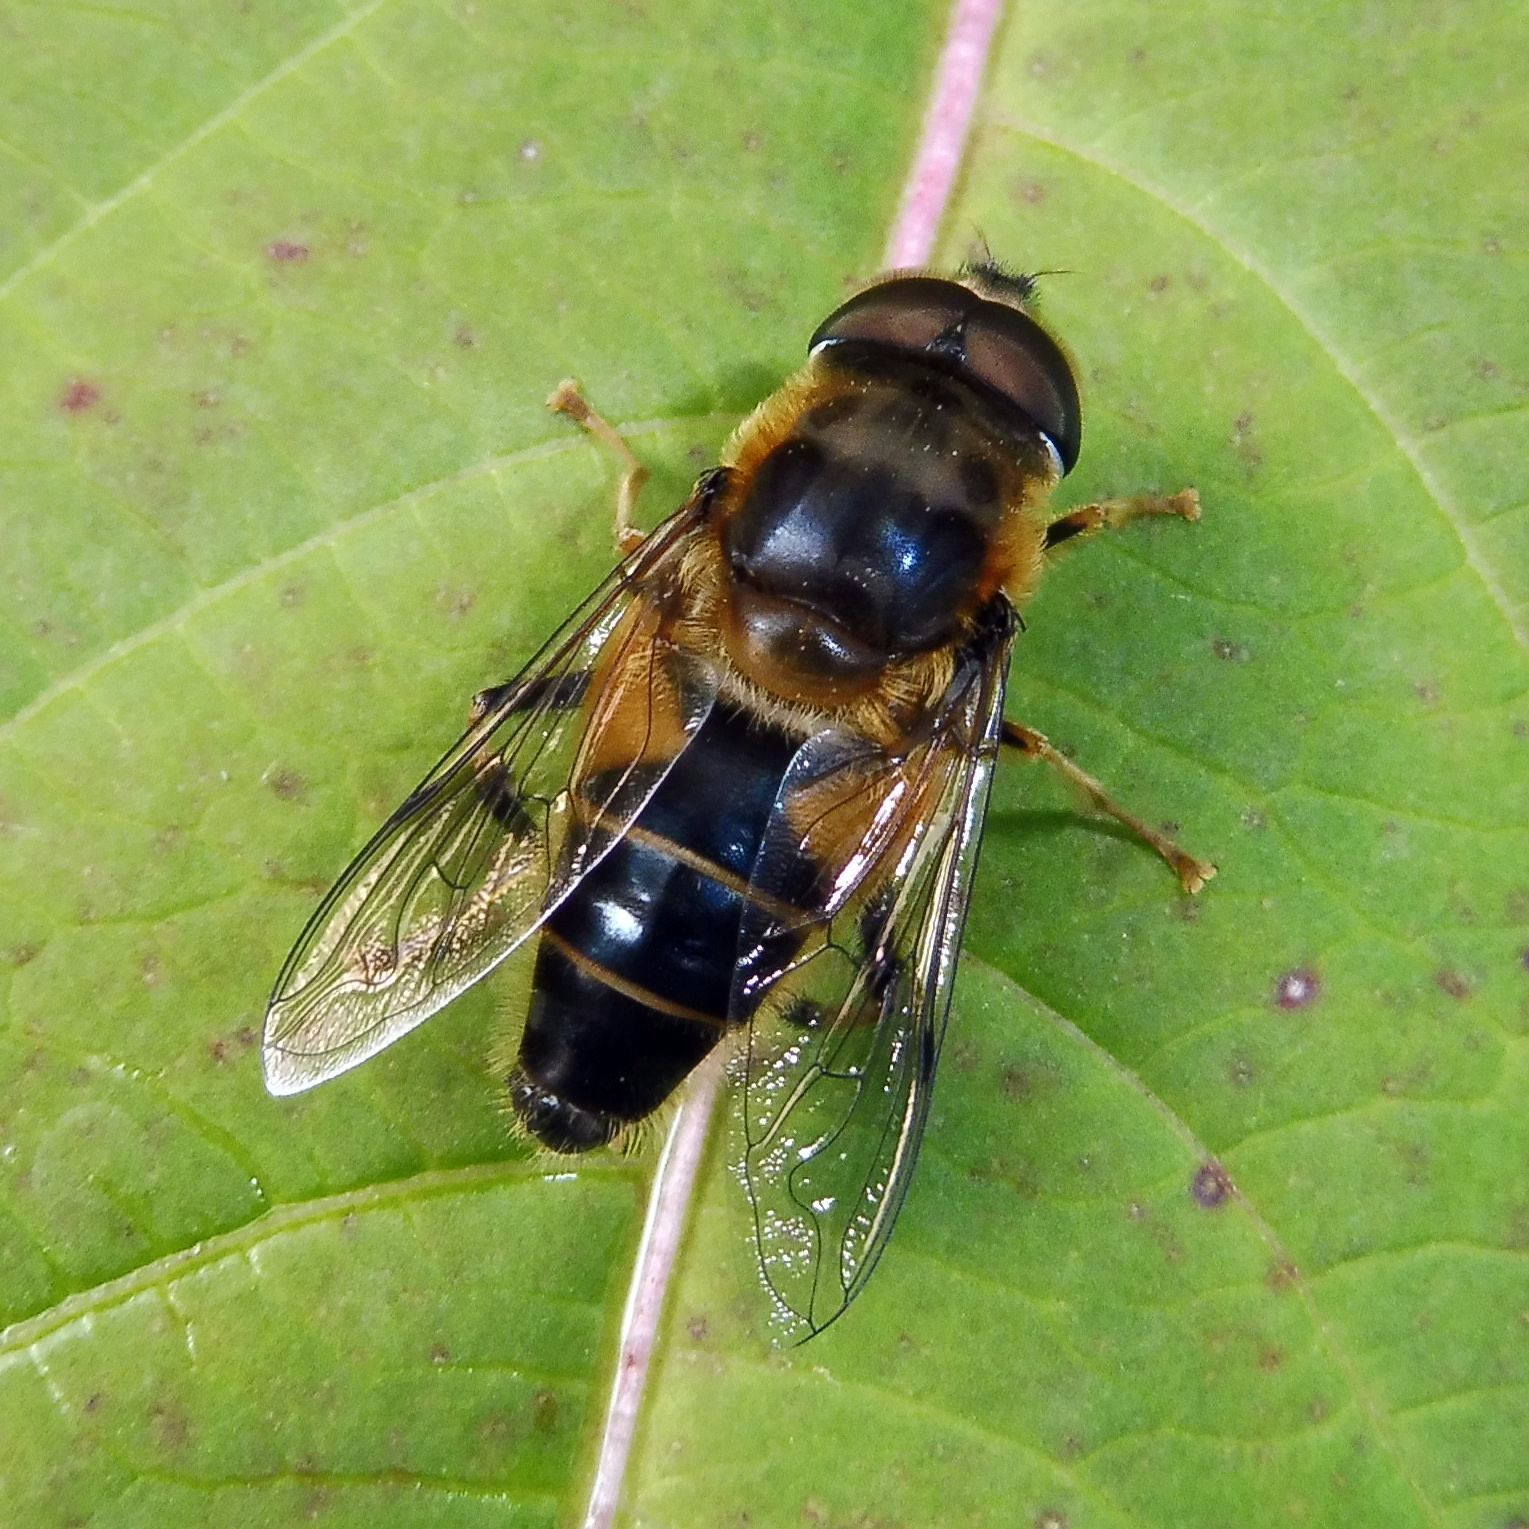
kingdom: Animalia
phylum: Arthropoda
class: Insecta
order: Diptera
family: Syrphidae
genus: Eristalis
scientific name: Eristalis pertinax
